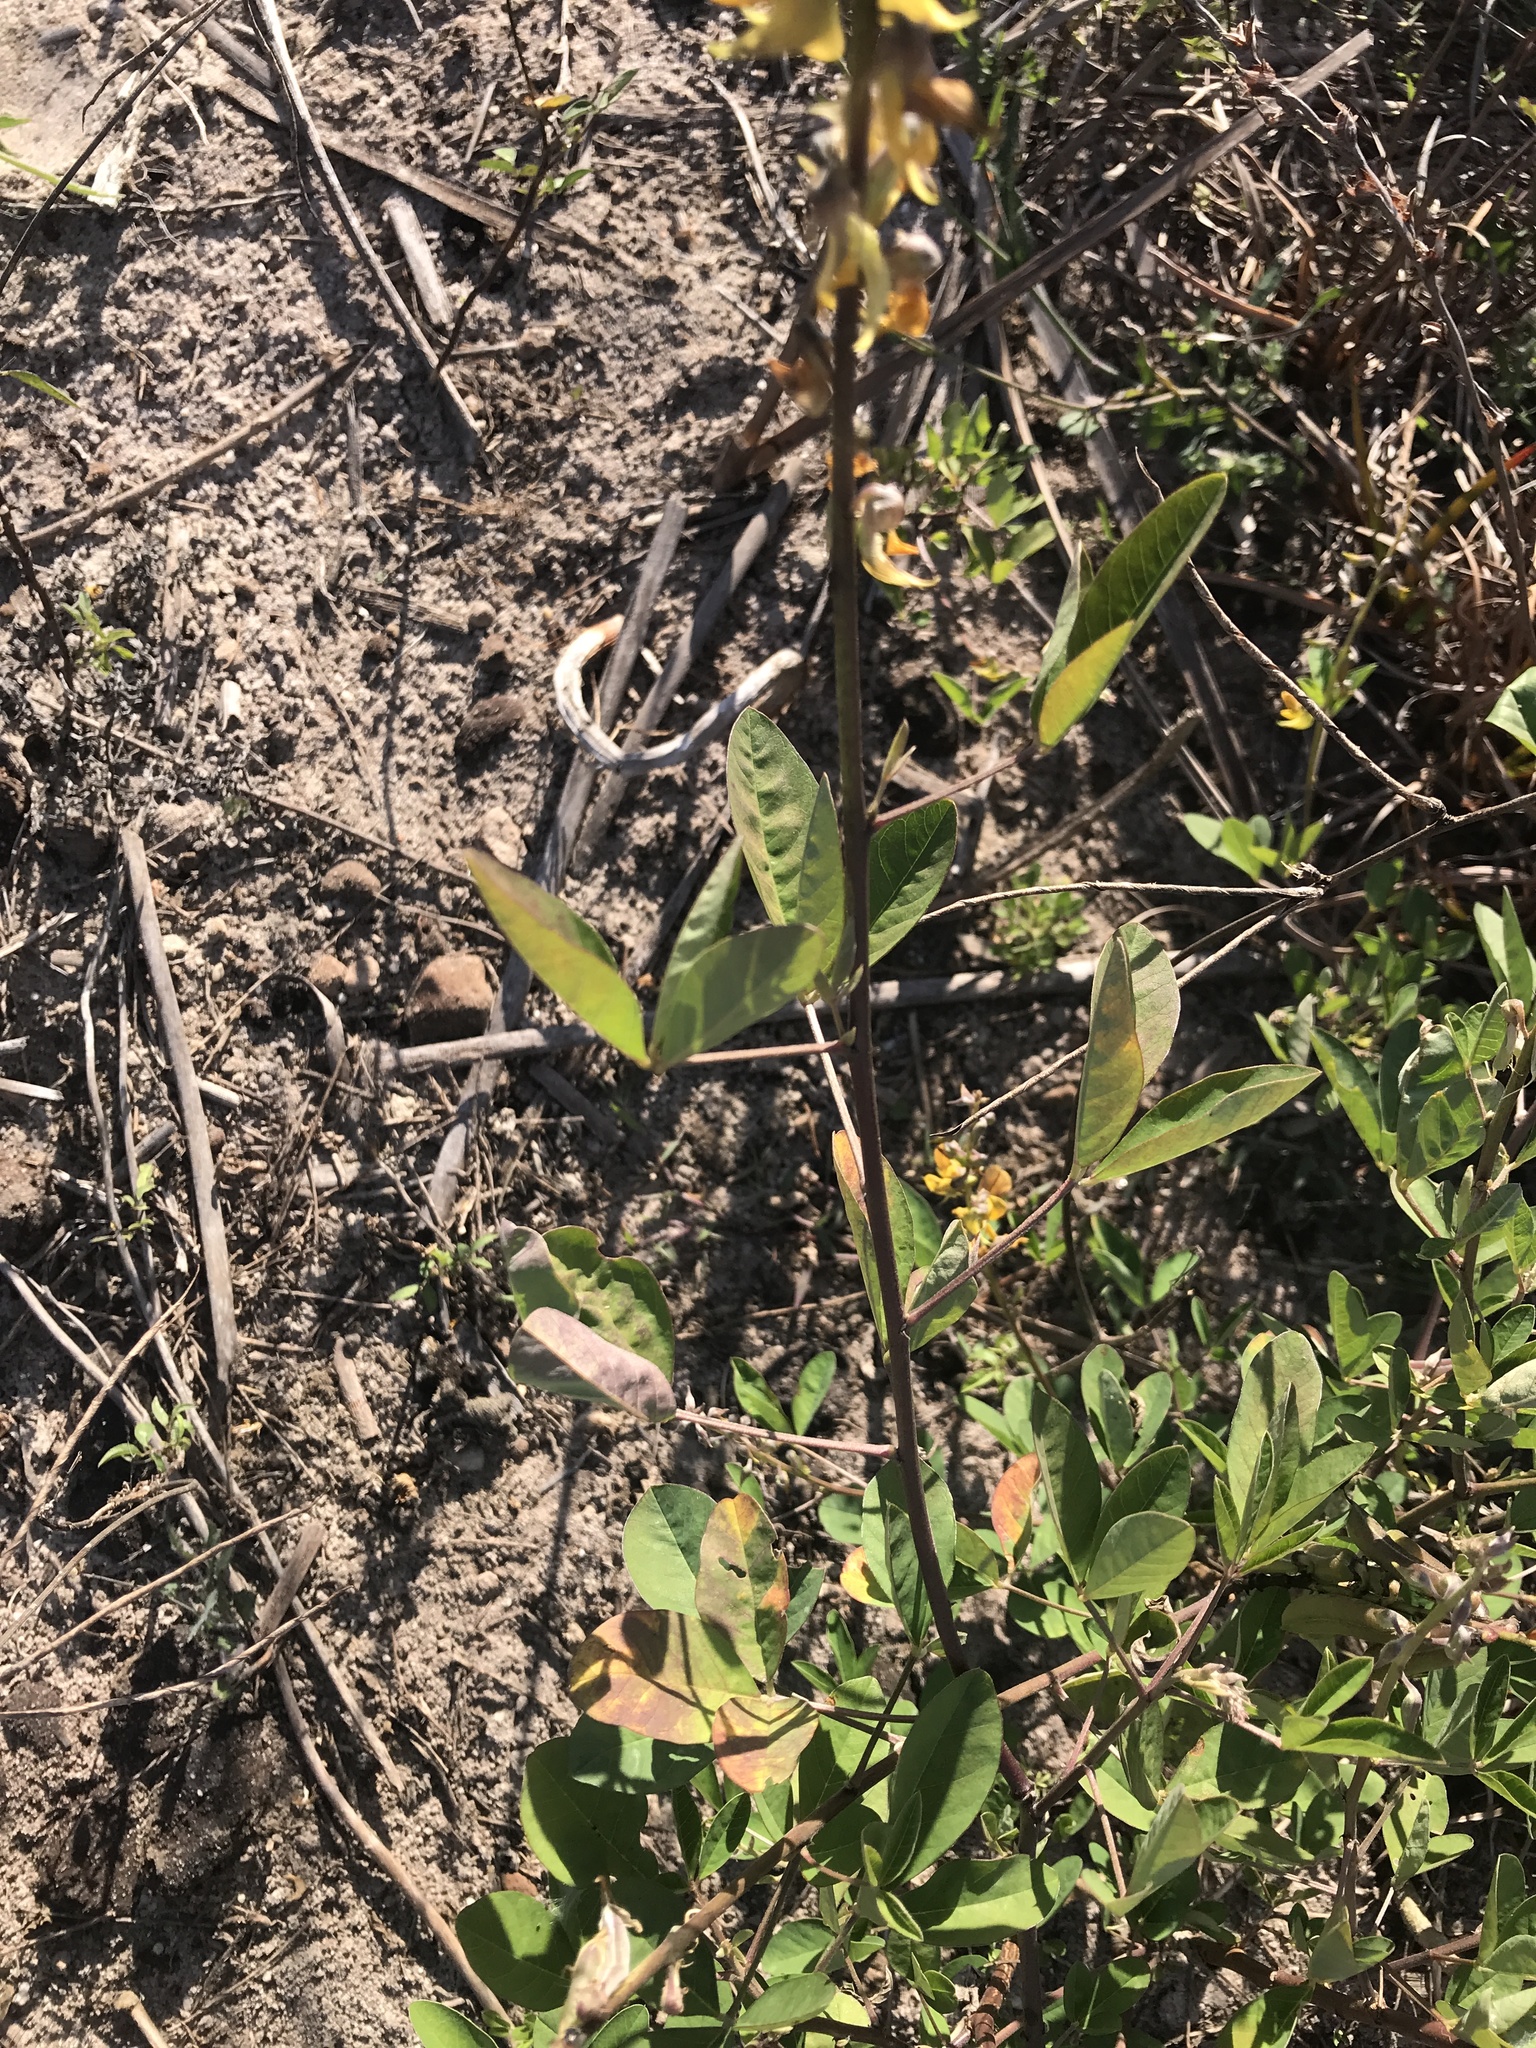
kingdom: Plantae
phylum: Tracheophyta
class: Magnoliopsida
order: Fabales
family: Fabaceae
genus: Crotalaria
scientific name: Crotalaria pallida
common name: Smooth rattlebox
